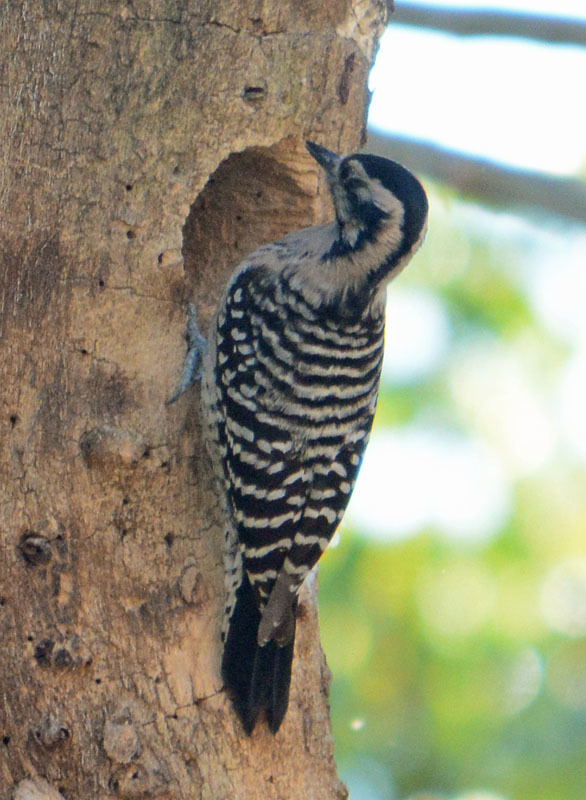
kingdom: Animalia
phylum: Chordata
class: Aves
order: Piciformes
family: Picidae
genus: Dryobates
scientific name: Dryobates scalaris
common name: Ladder-backed woodpecker
